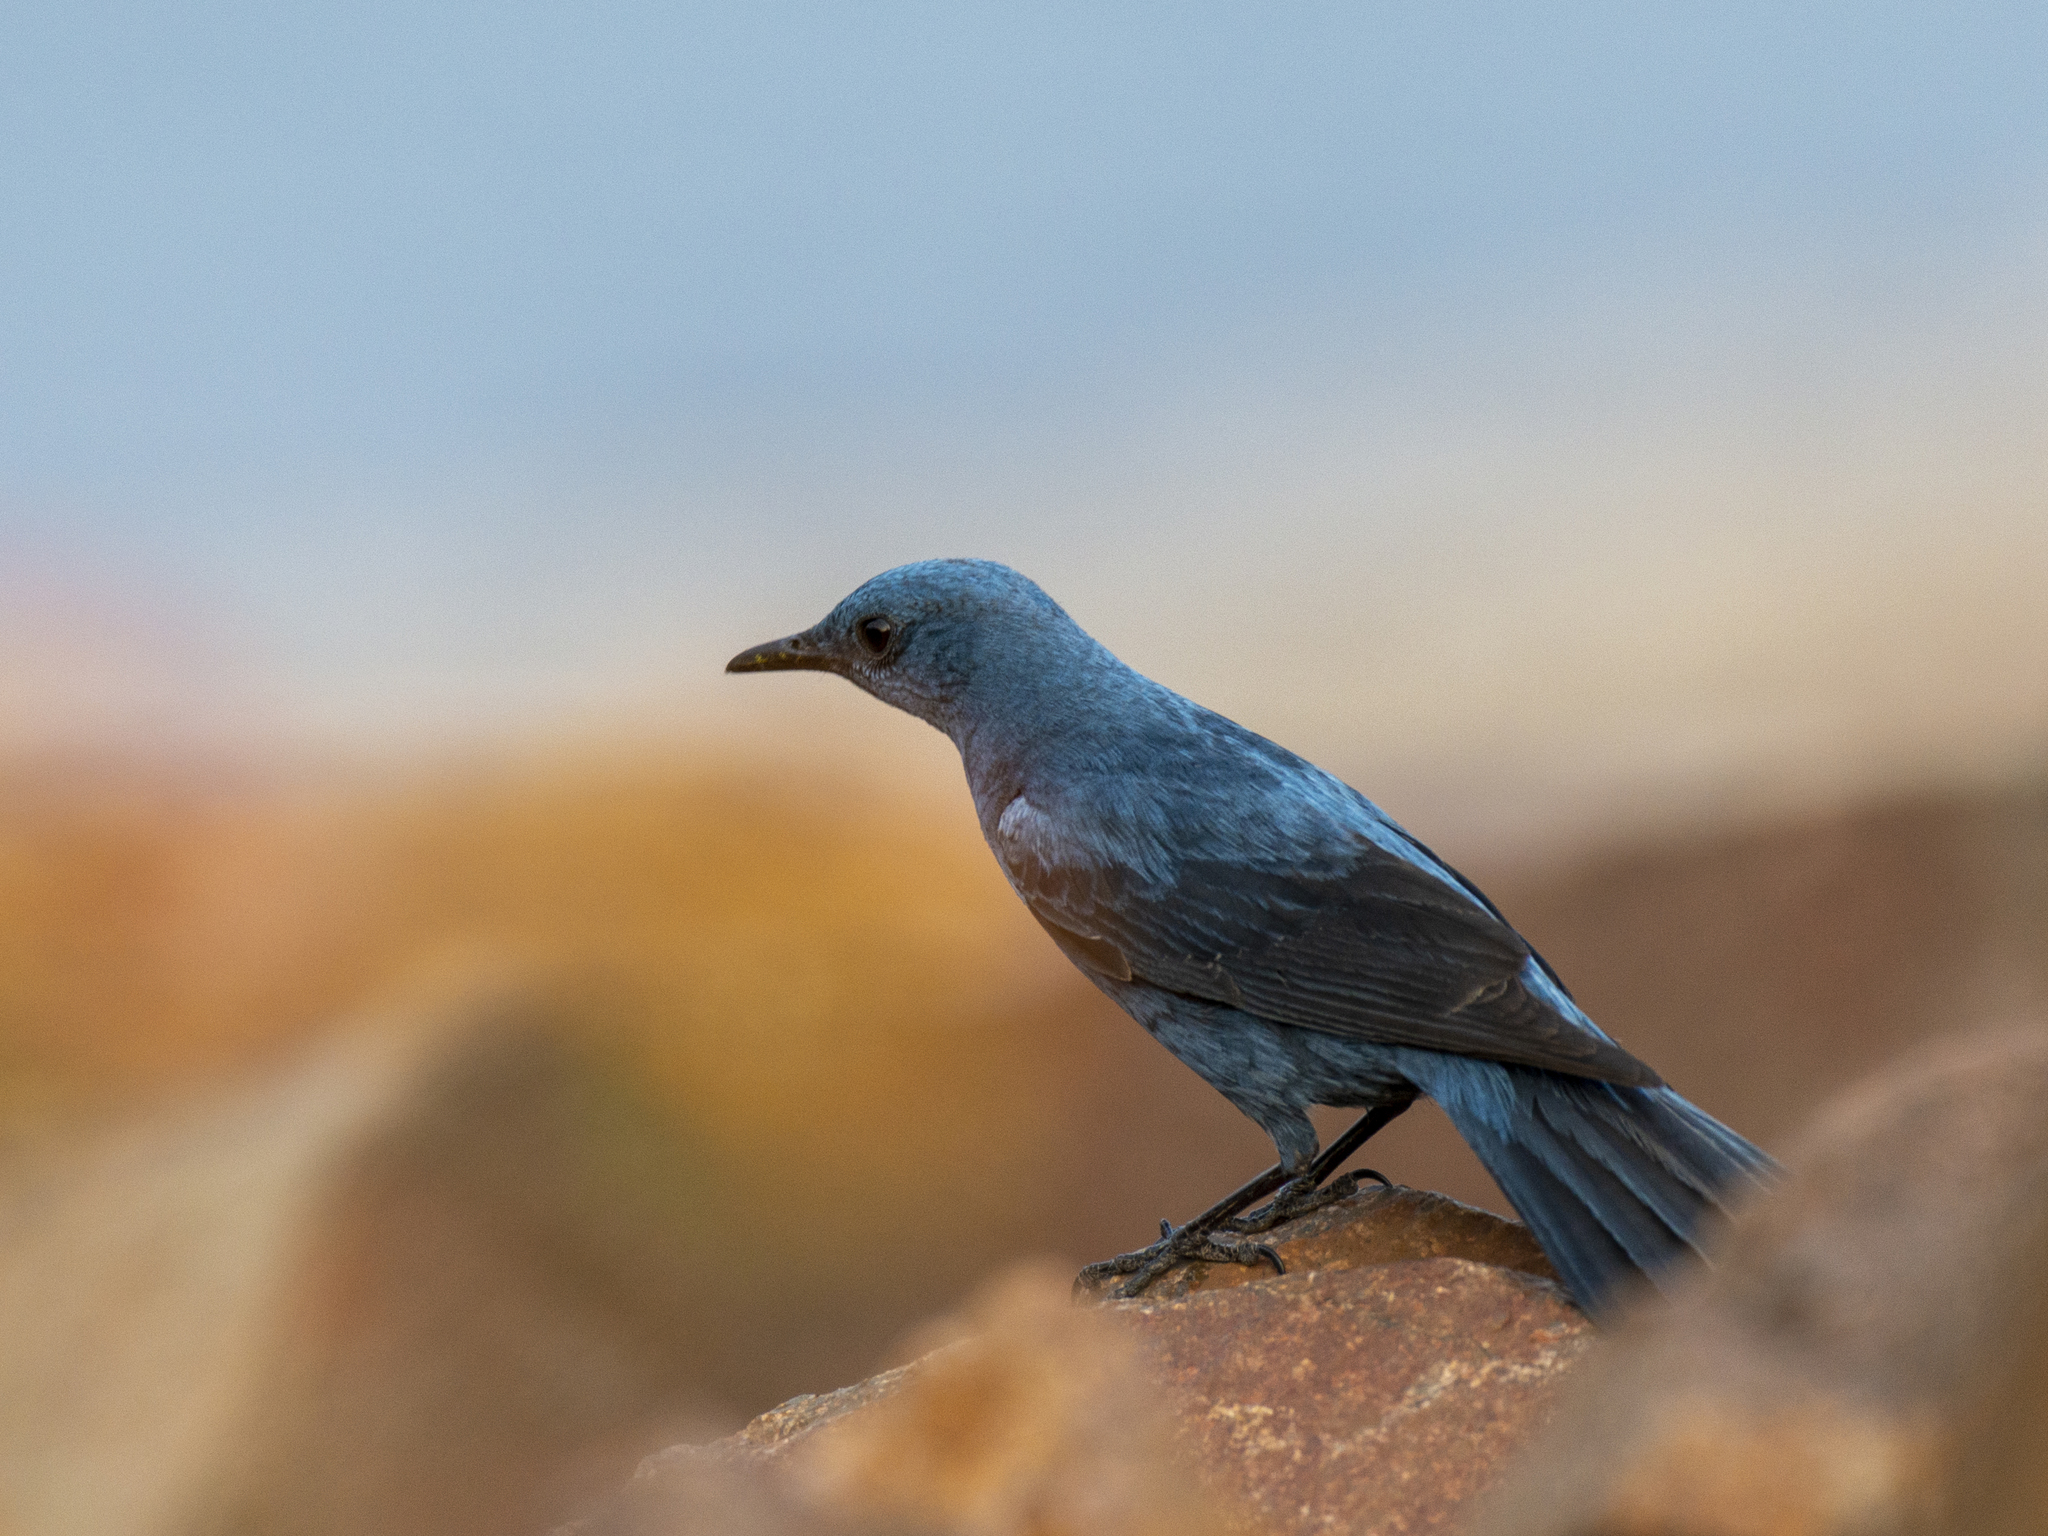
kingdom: Animalia
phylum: Chordata
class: Aves
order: Passeriformes
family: Muscicapidae
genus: Monticola
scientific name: Monticola solitarius
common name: Blue rock thrush
